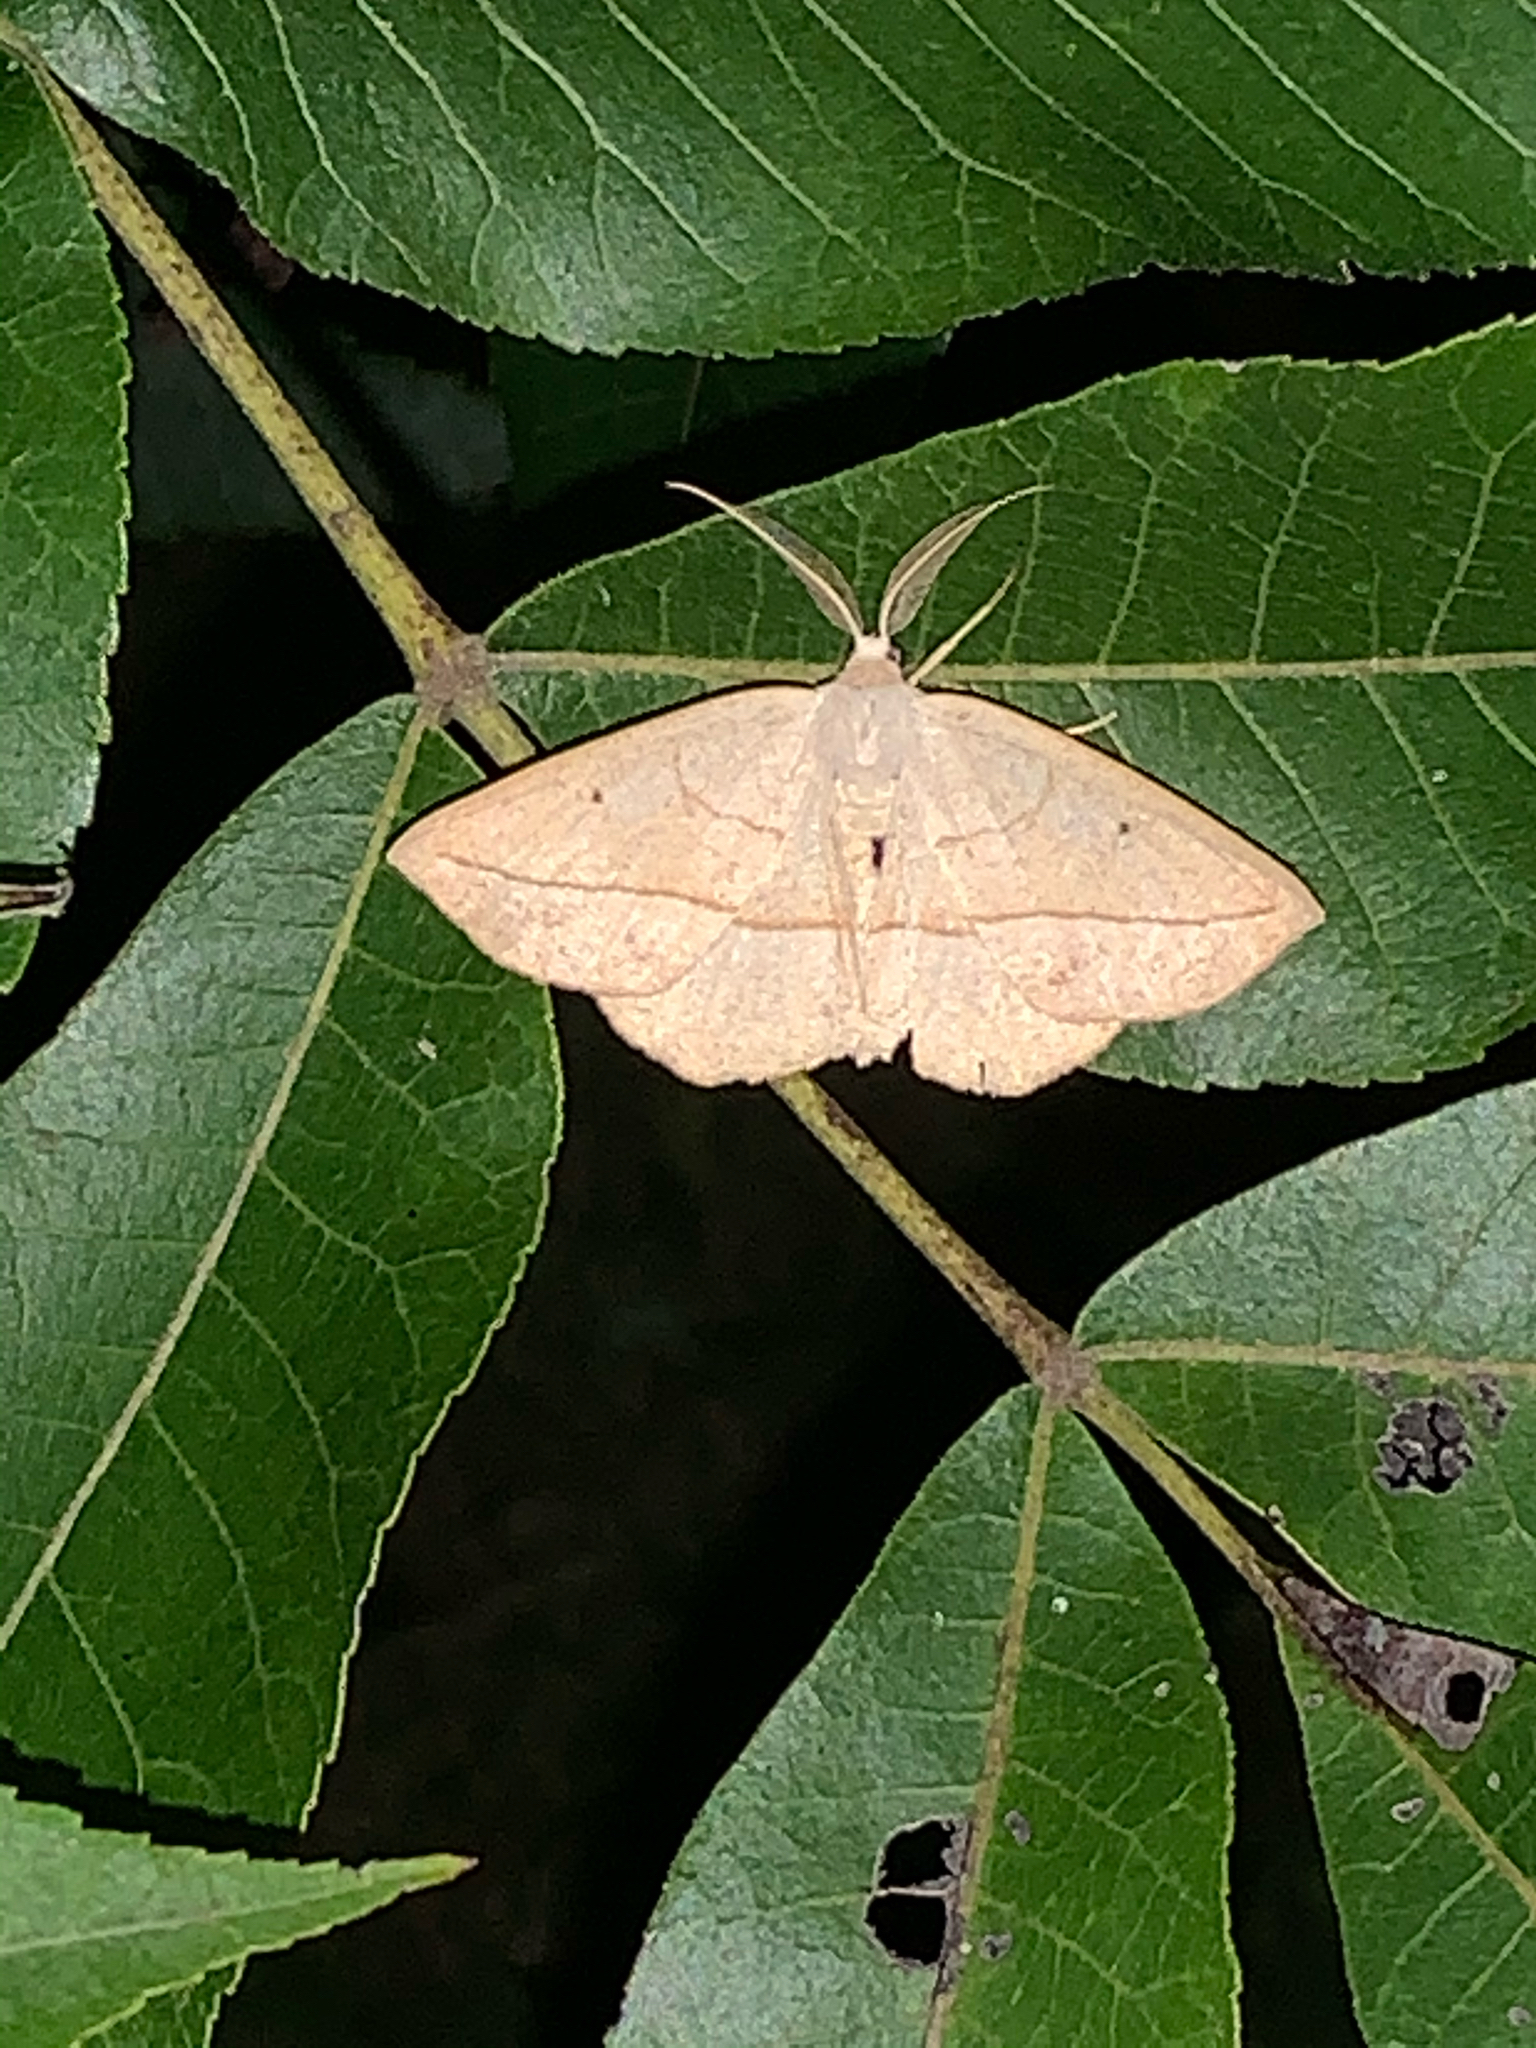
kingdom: Animalia
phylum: Arthropoda
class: Insecta
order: Lepidoptera
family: Geometridae
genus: Eusarca
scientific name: Eusarca confusaria
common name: Confused eusarca
